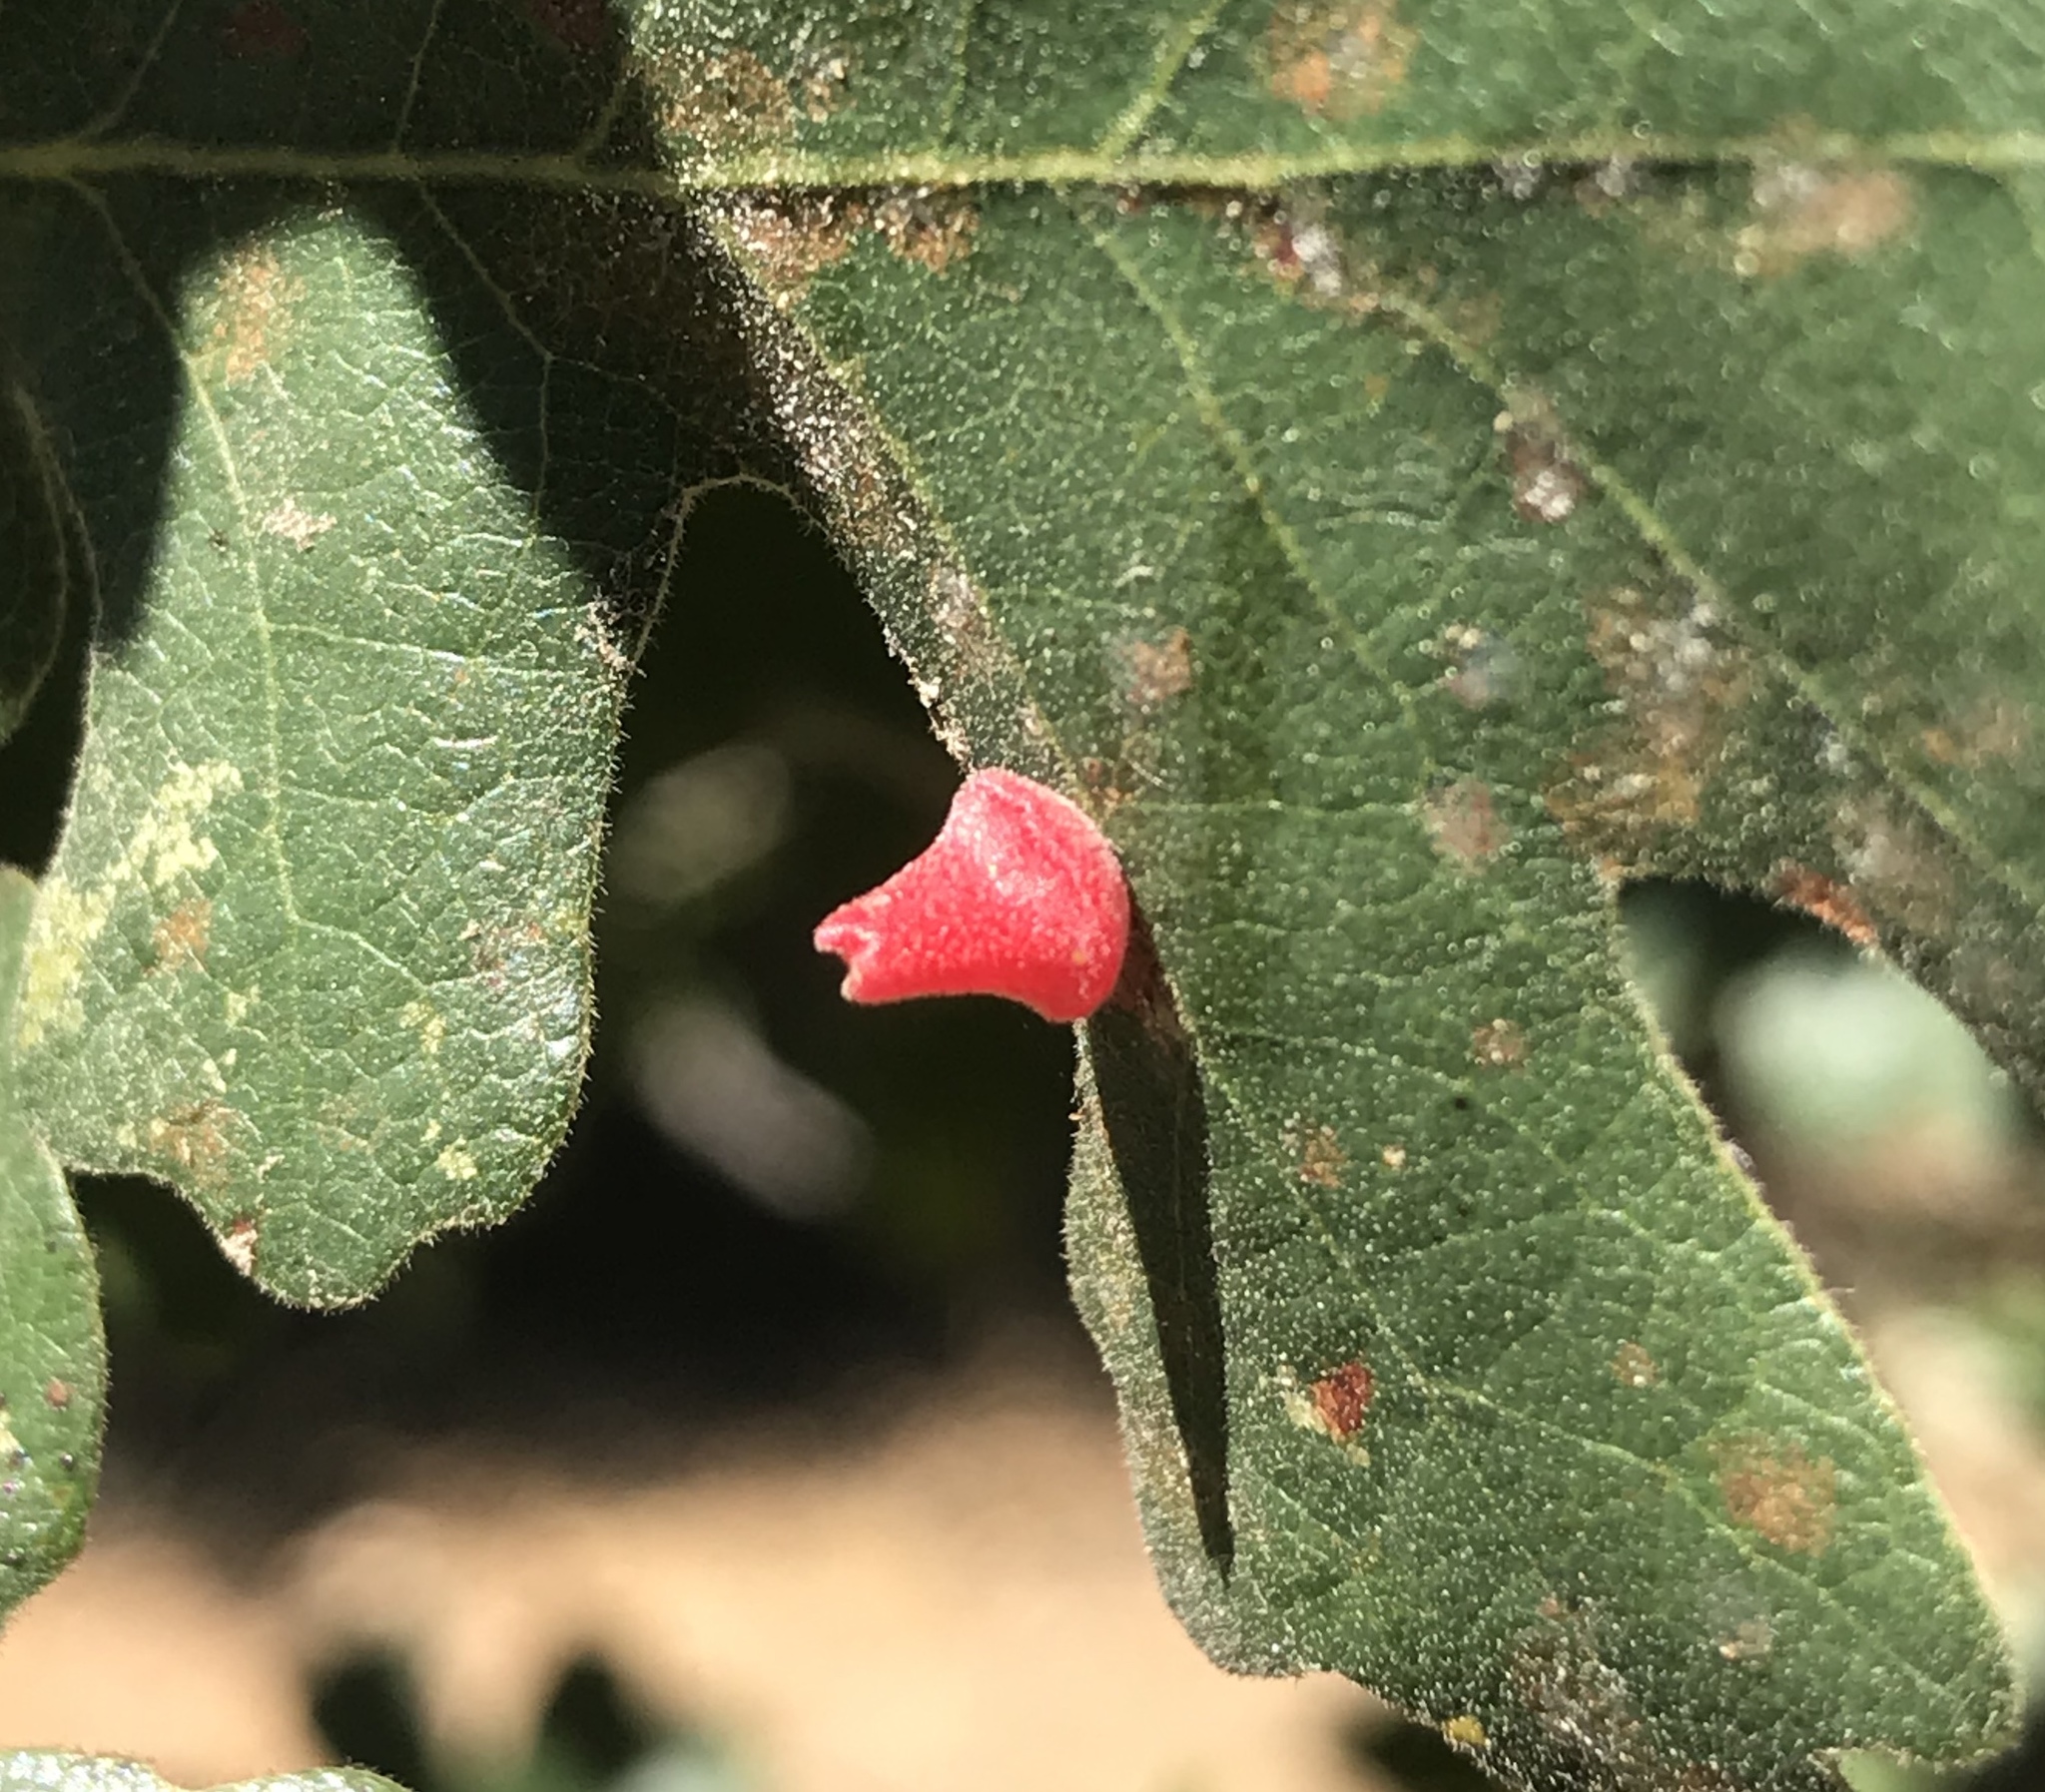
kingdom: Animalia
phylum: Arthropoda
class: Insecta
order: Hymenoptera
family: Cynipidae
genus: Andricus
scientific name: Andricus
